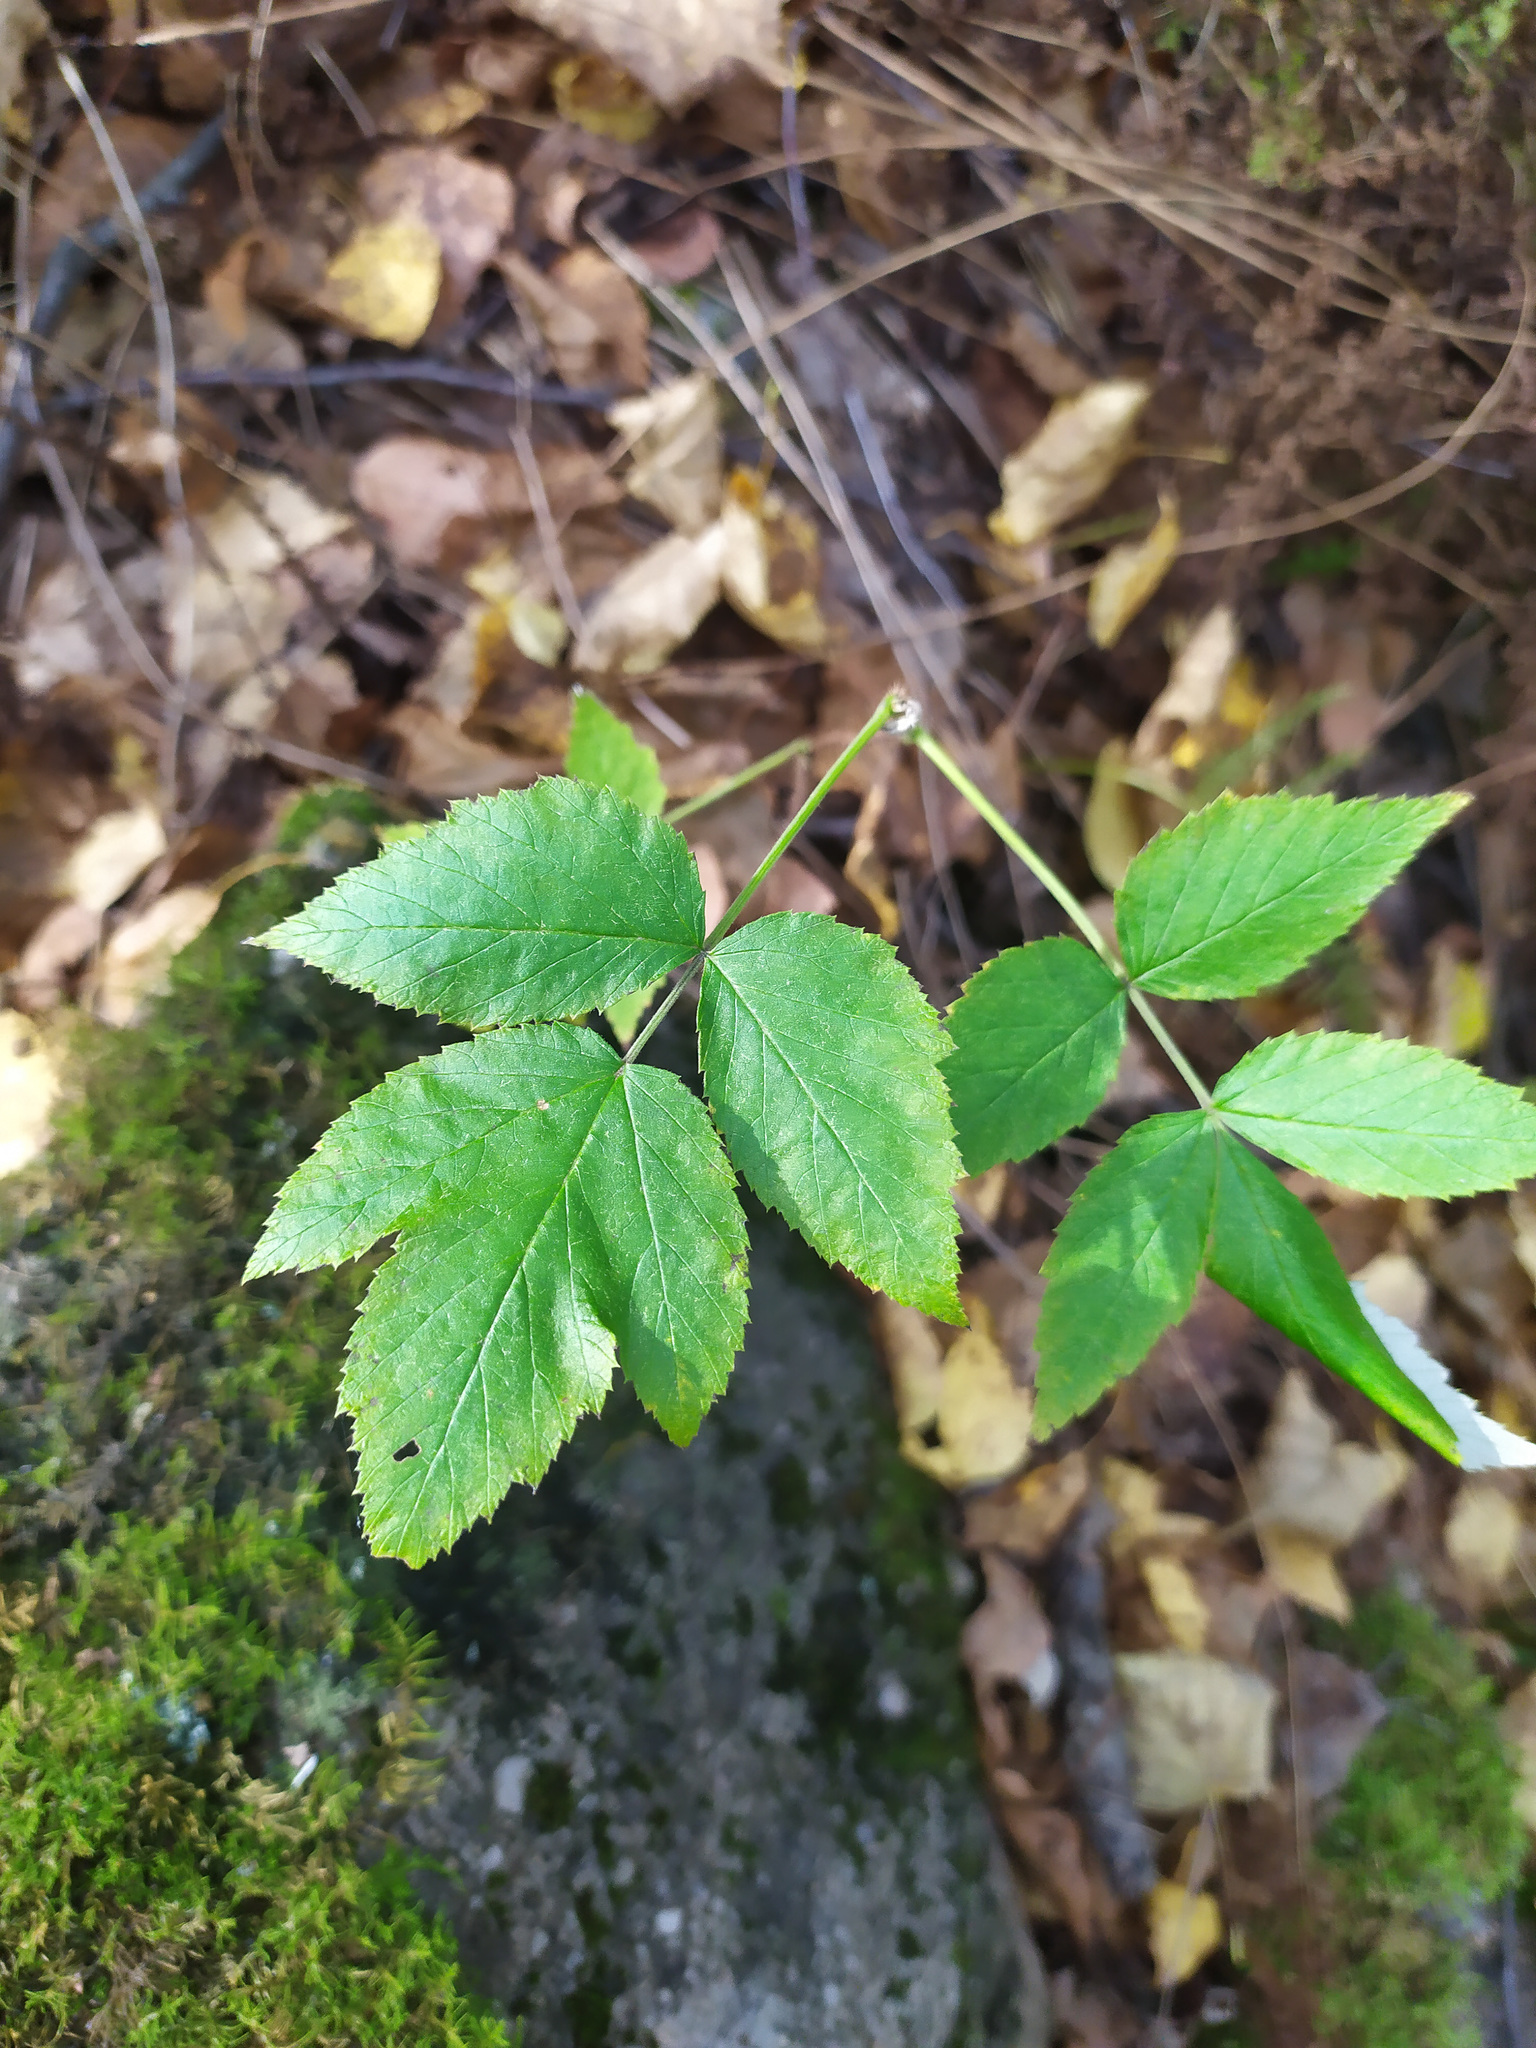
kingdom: Plantae
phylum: Tracheophyta
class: Magnoliopsida
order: Rosales
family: Rosaceae
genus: Rubus
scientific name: Rubus idaeus
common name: Raspberry
